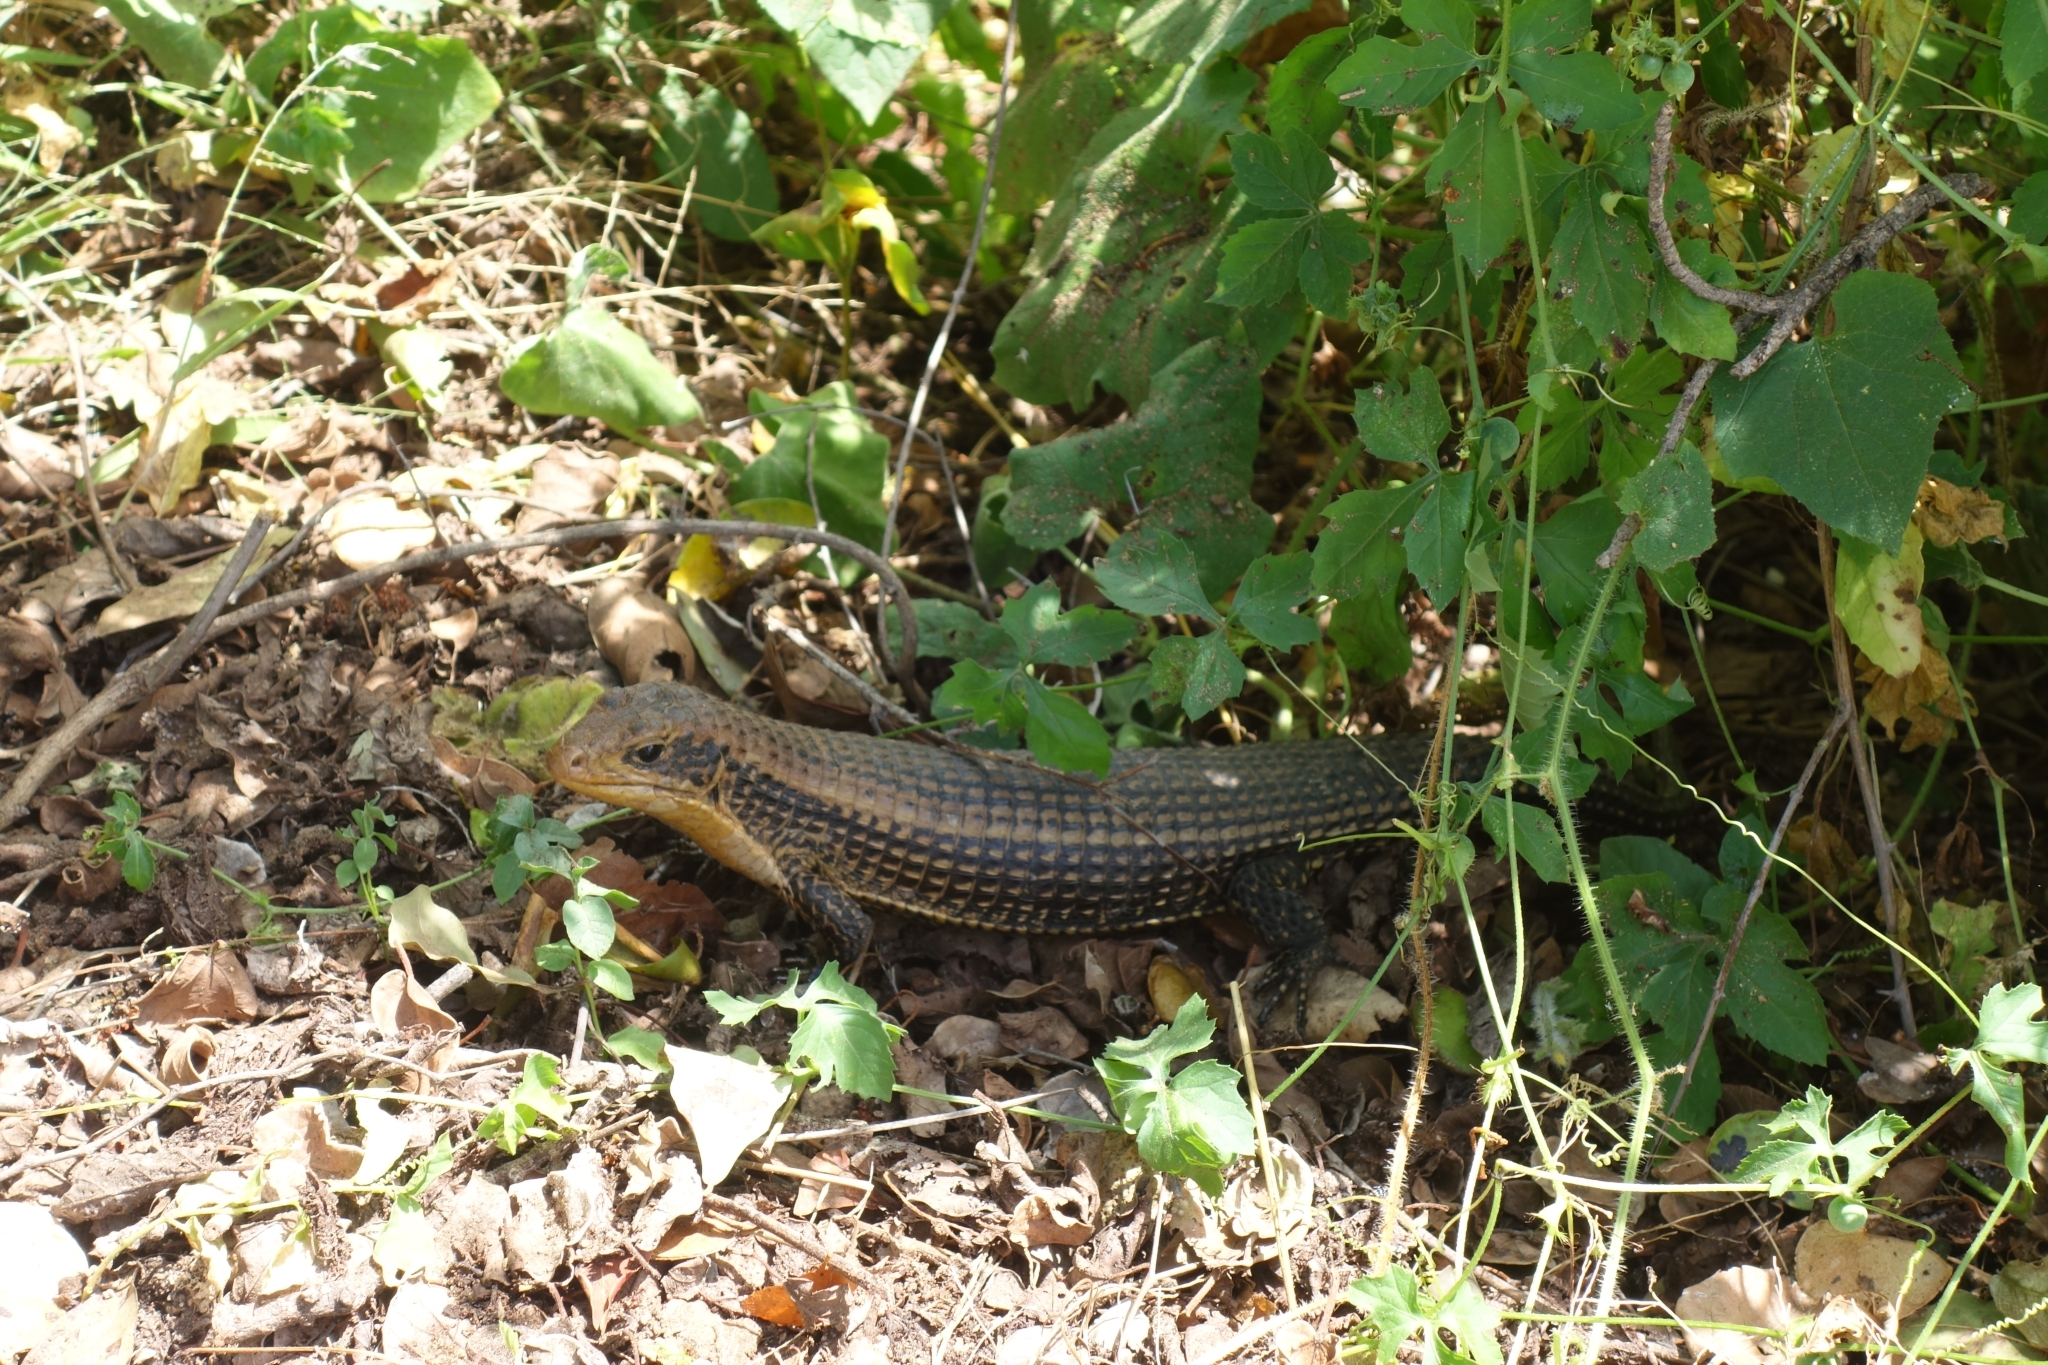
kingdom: Animalia
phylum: Chordata
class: Squamata
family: Gerrhosauridae
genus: Broadleysaurus
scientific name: Broadleysaurus major
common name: Rough-scaled plated lizard
